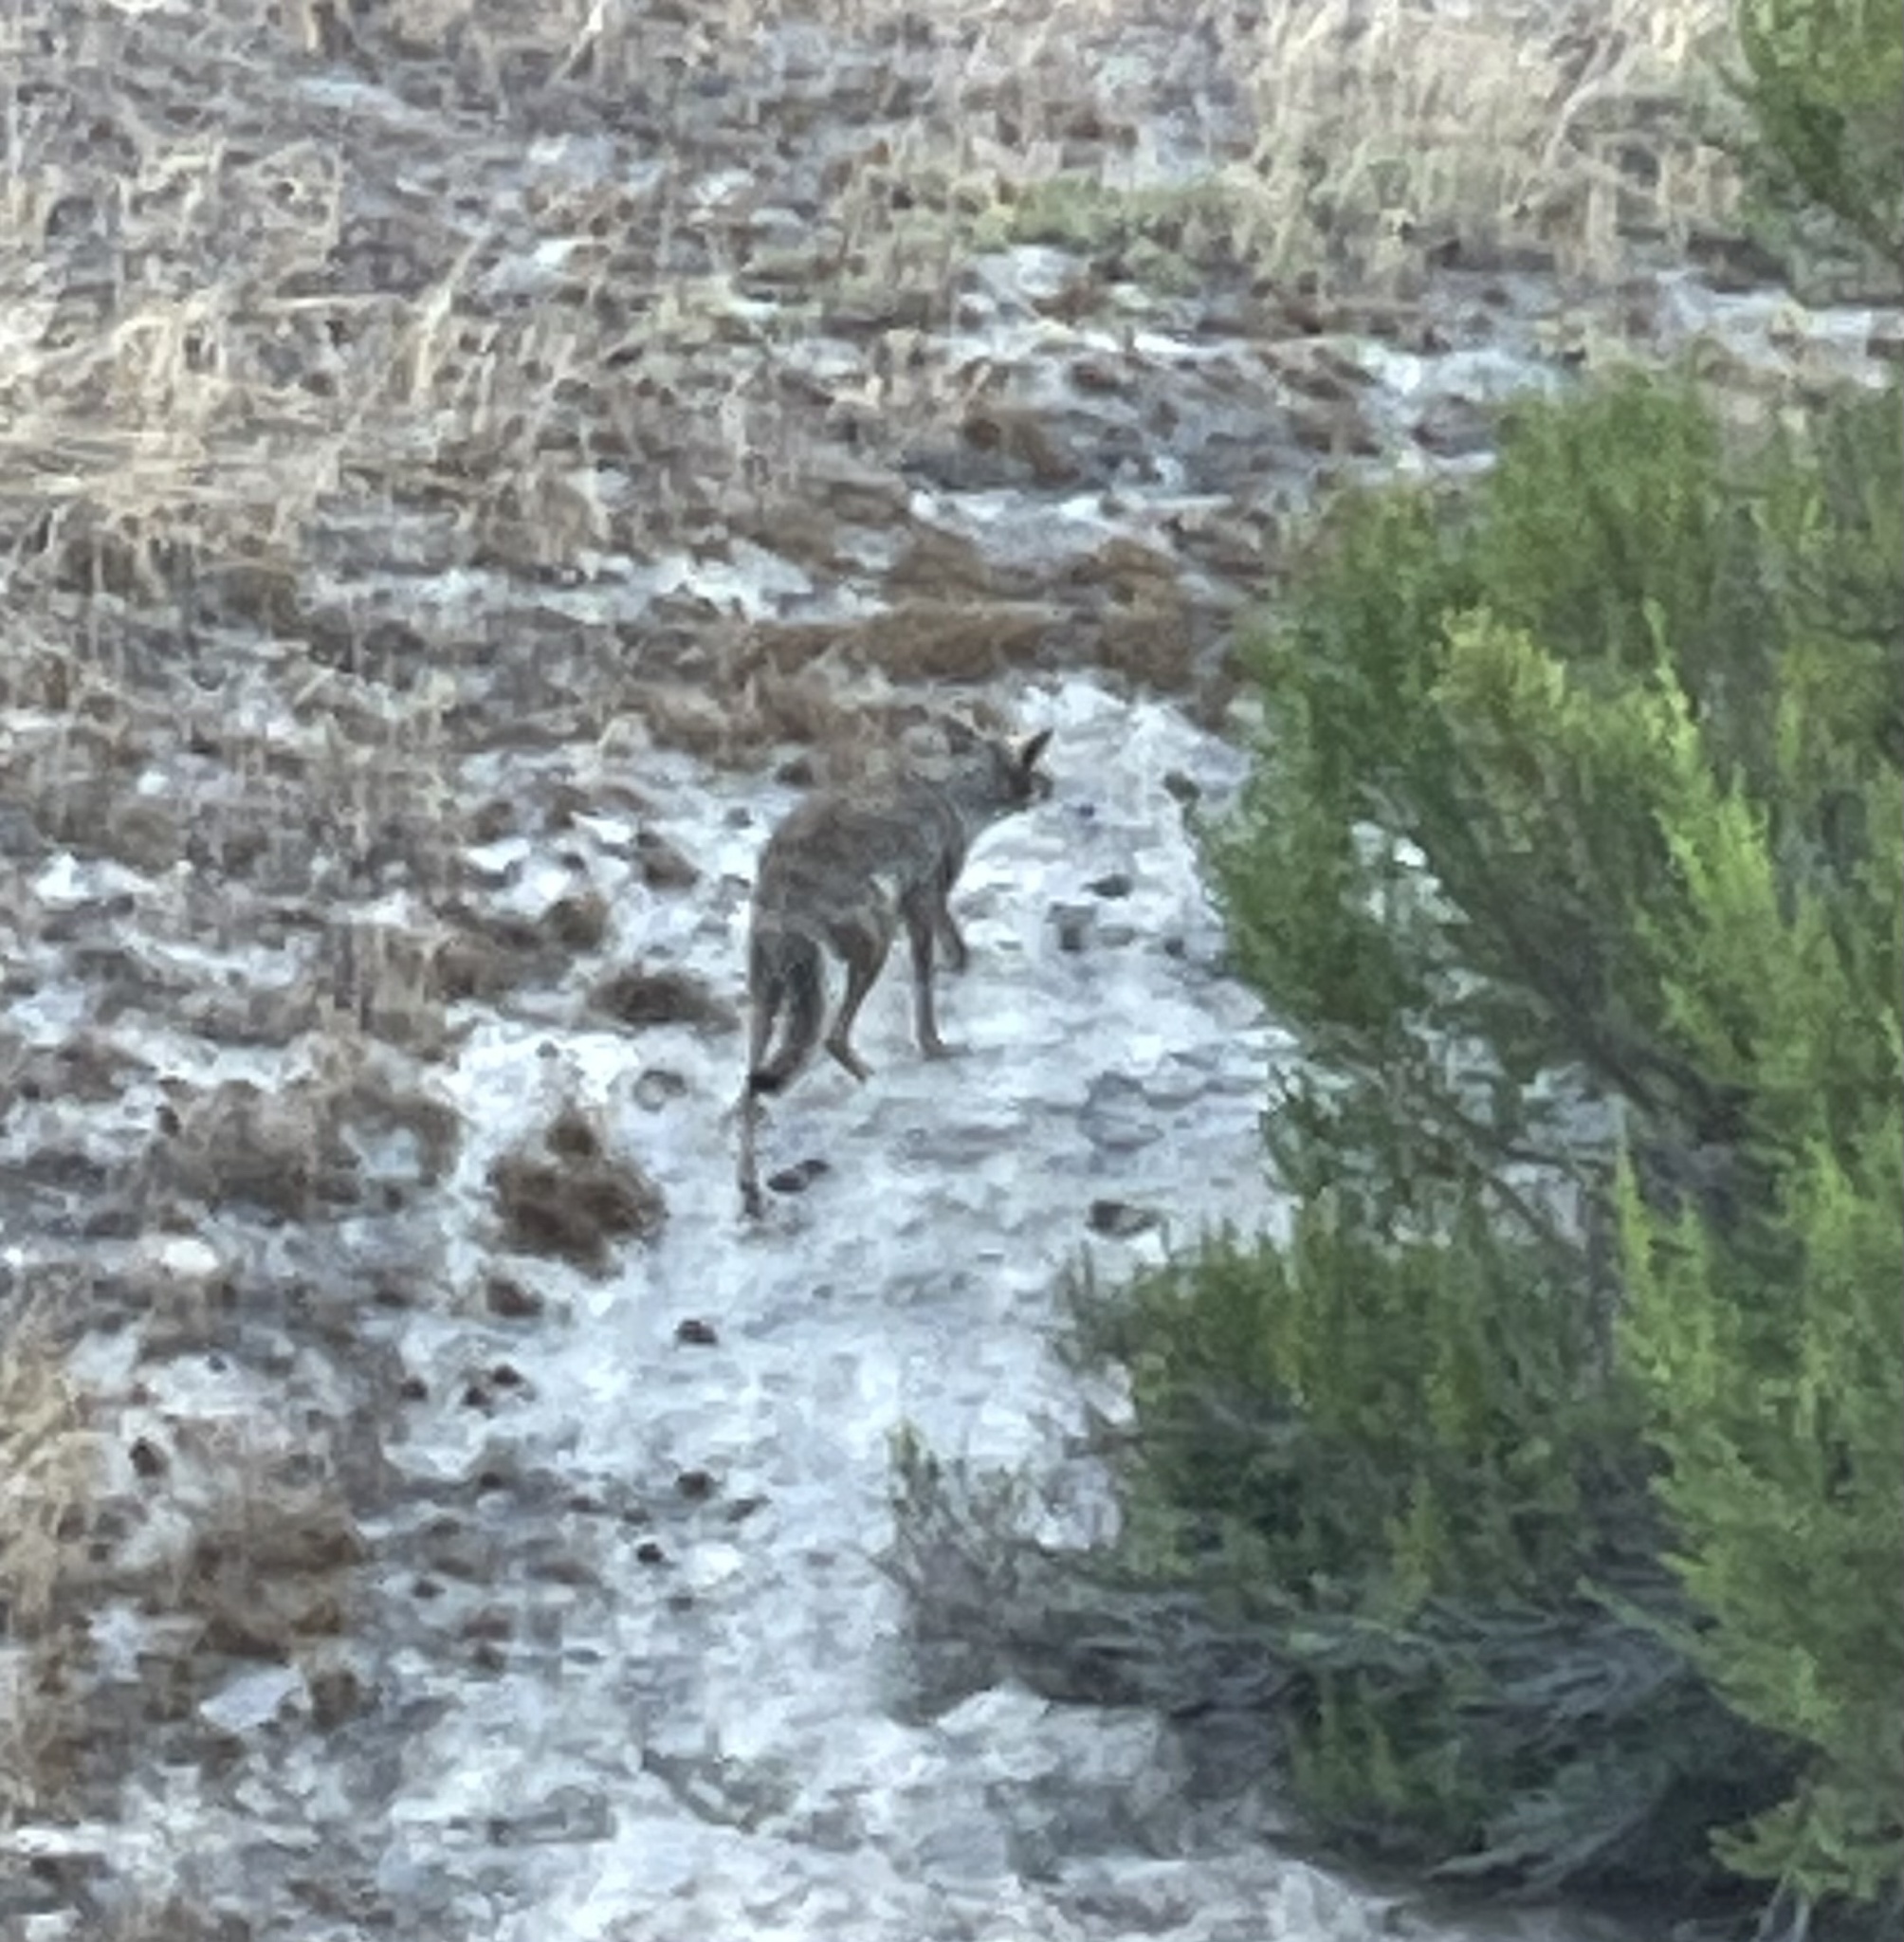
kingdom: Animalia
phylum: Chordata
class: Mammalia
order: Carnivora
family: Canidae
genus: Canis
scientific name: Canis latrans
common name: Coyote
